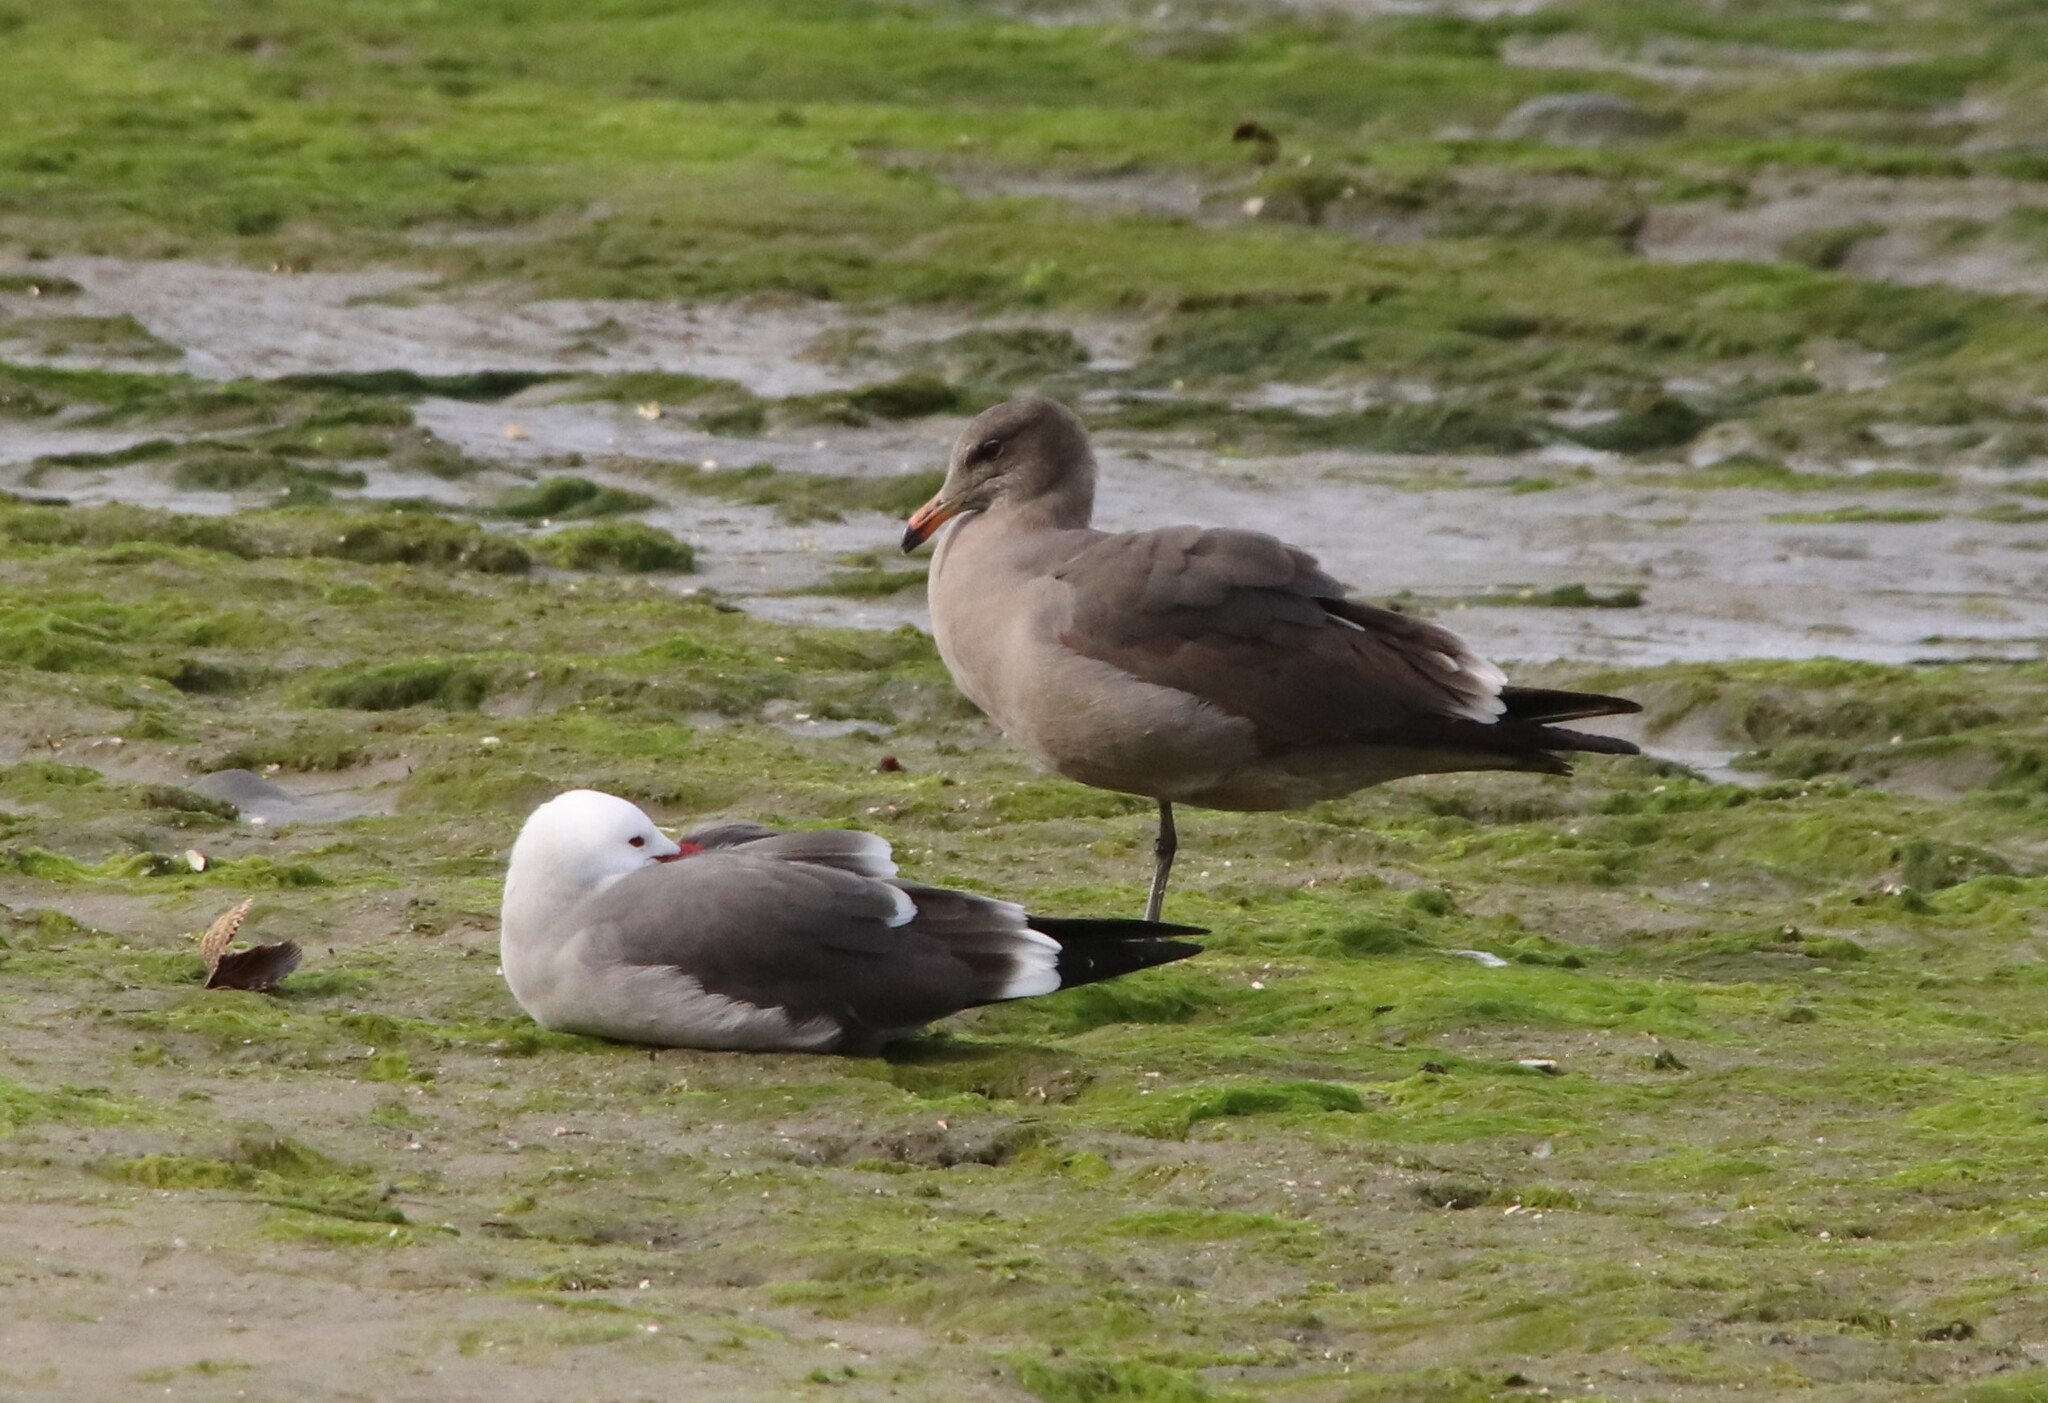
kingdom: Animalia
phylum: Chordata
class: Aves
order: Charadriiformes
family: Laridae
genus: Larus
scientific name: Larus heermanni
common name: Heermann's gull
